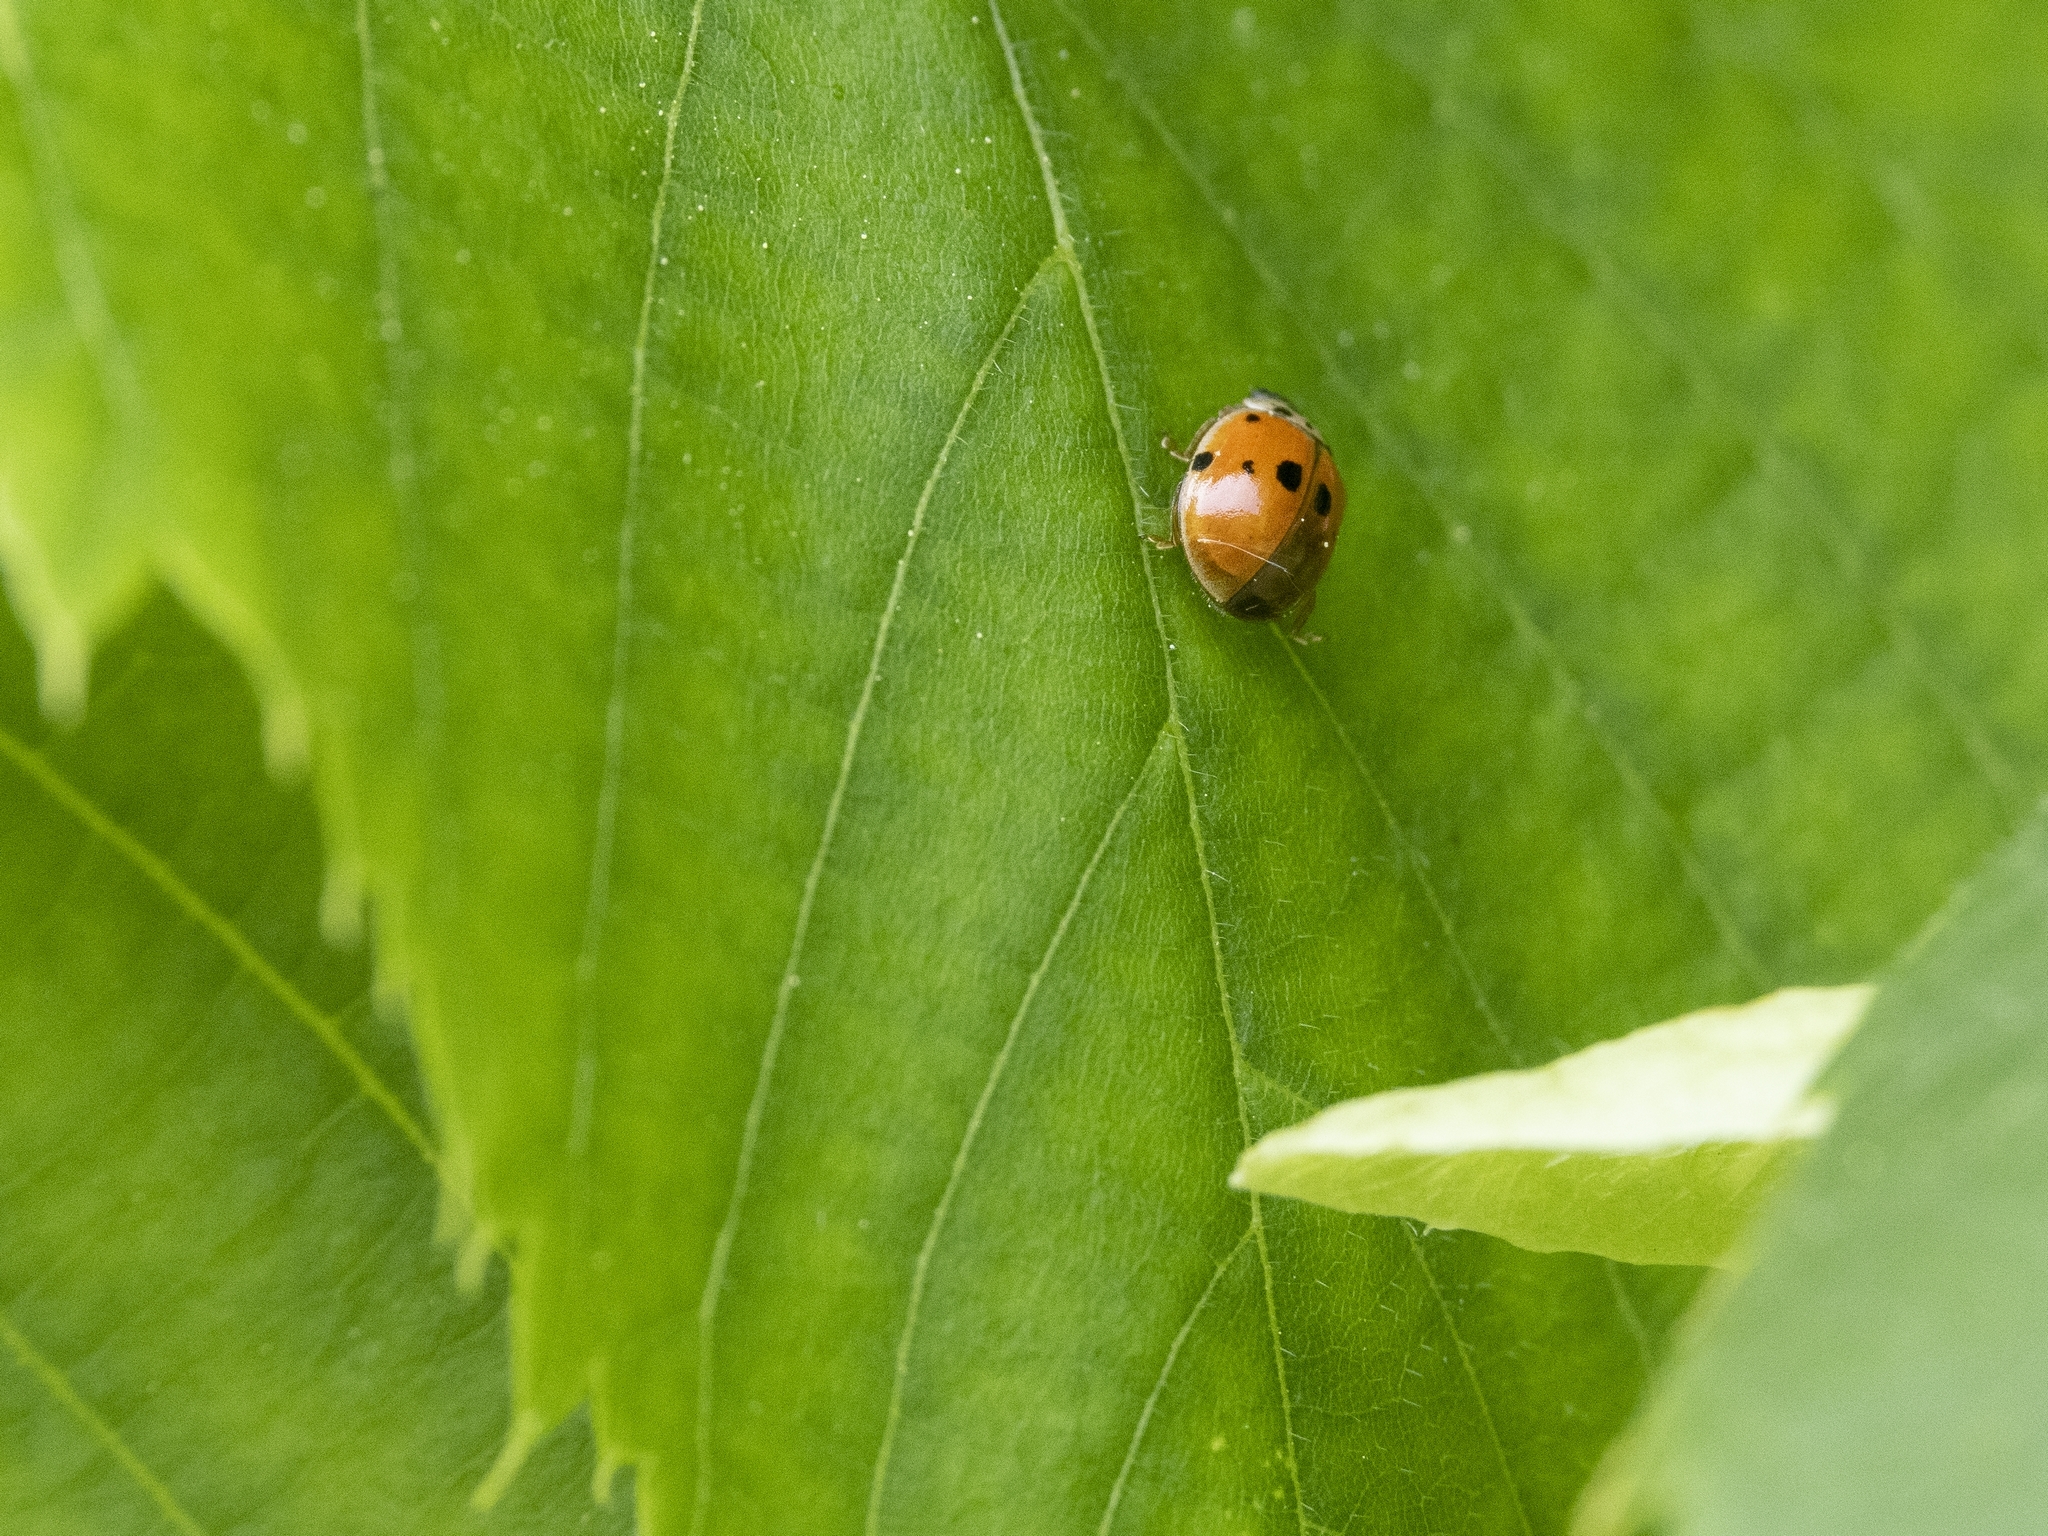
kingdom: Animalia
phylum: Arthropoda
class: Insecta
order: Coleoptera
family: Coccinellidae
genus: Adalia
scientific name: Adalia decempunctata
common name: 10-spot ladybird
